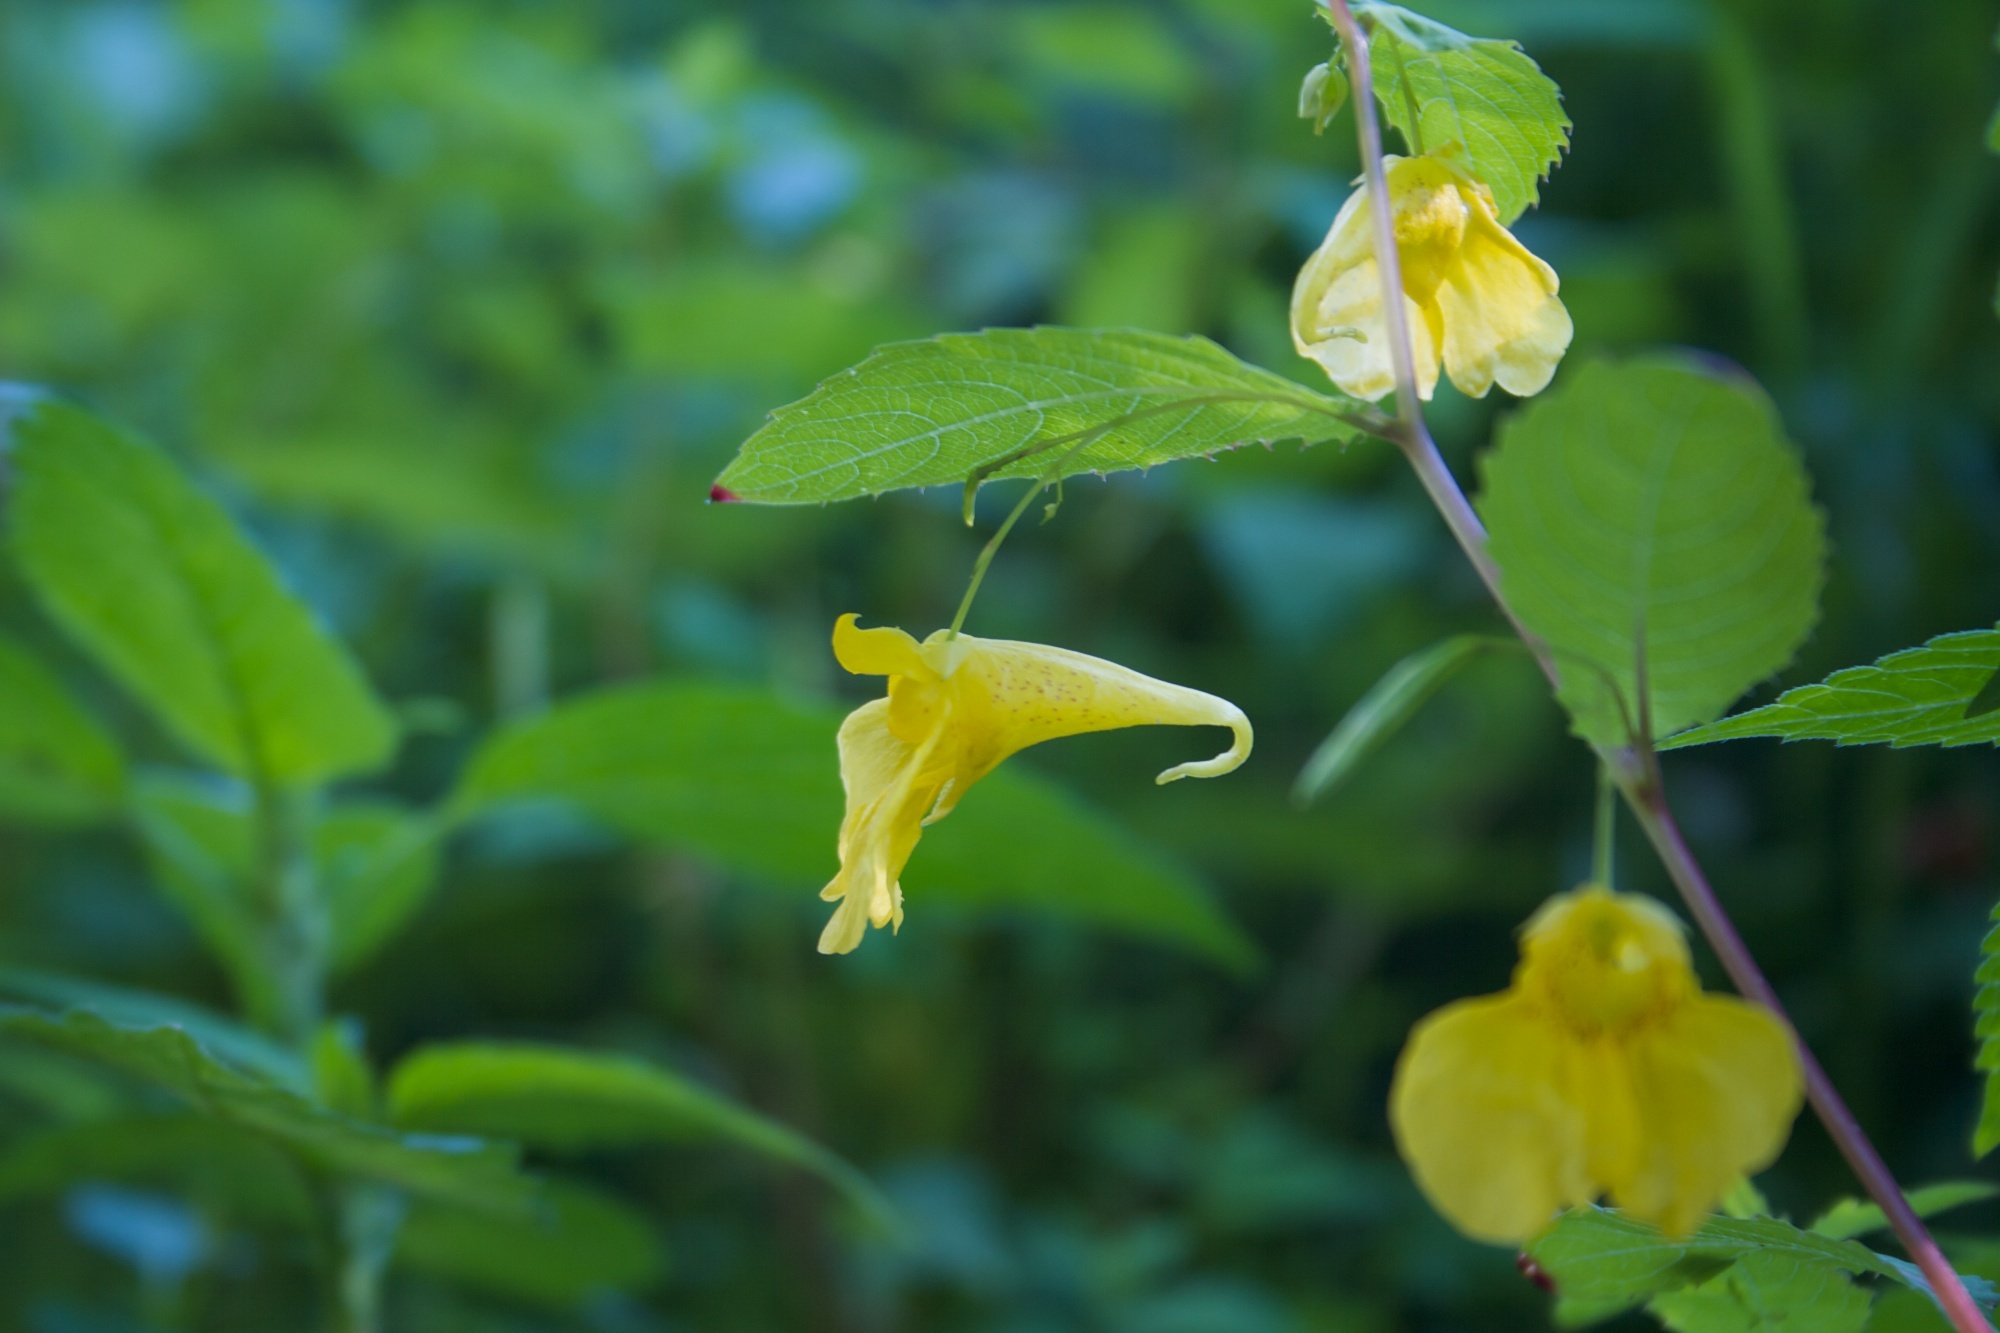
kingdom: Plantae
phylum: Tracheophyta
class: Magnoliopsida
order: Ericales
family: Balsaminaceae
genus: Impatiens
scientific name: Impatiens noli-tangere
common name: Touch-me-not balsam
